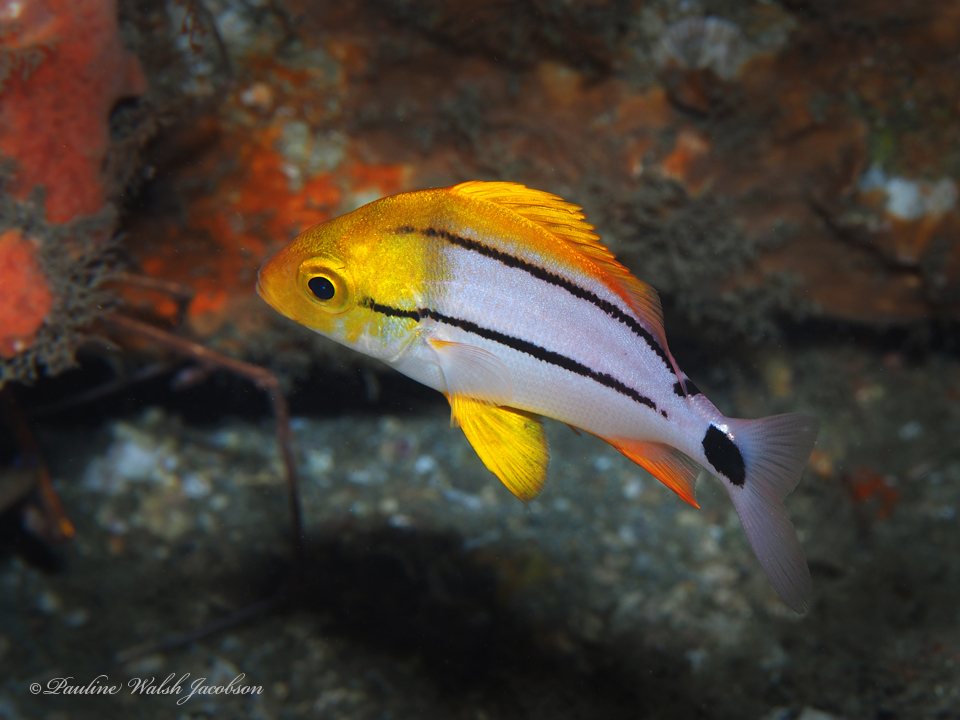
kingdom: Animalia
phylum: Chordata
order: Perciformes
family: Haemulidae
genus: Anisotremus
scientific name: Anisotremus virginicus
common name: Porkfish
